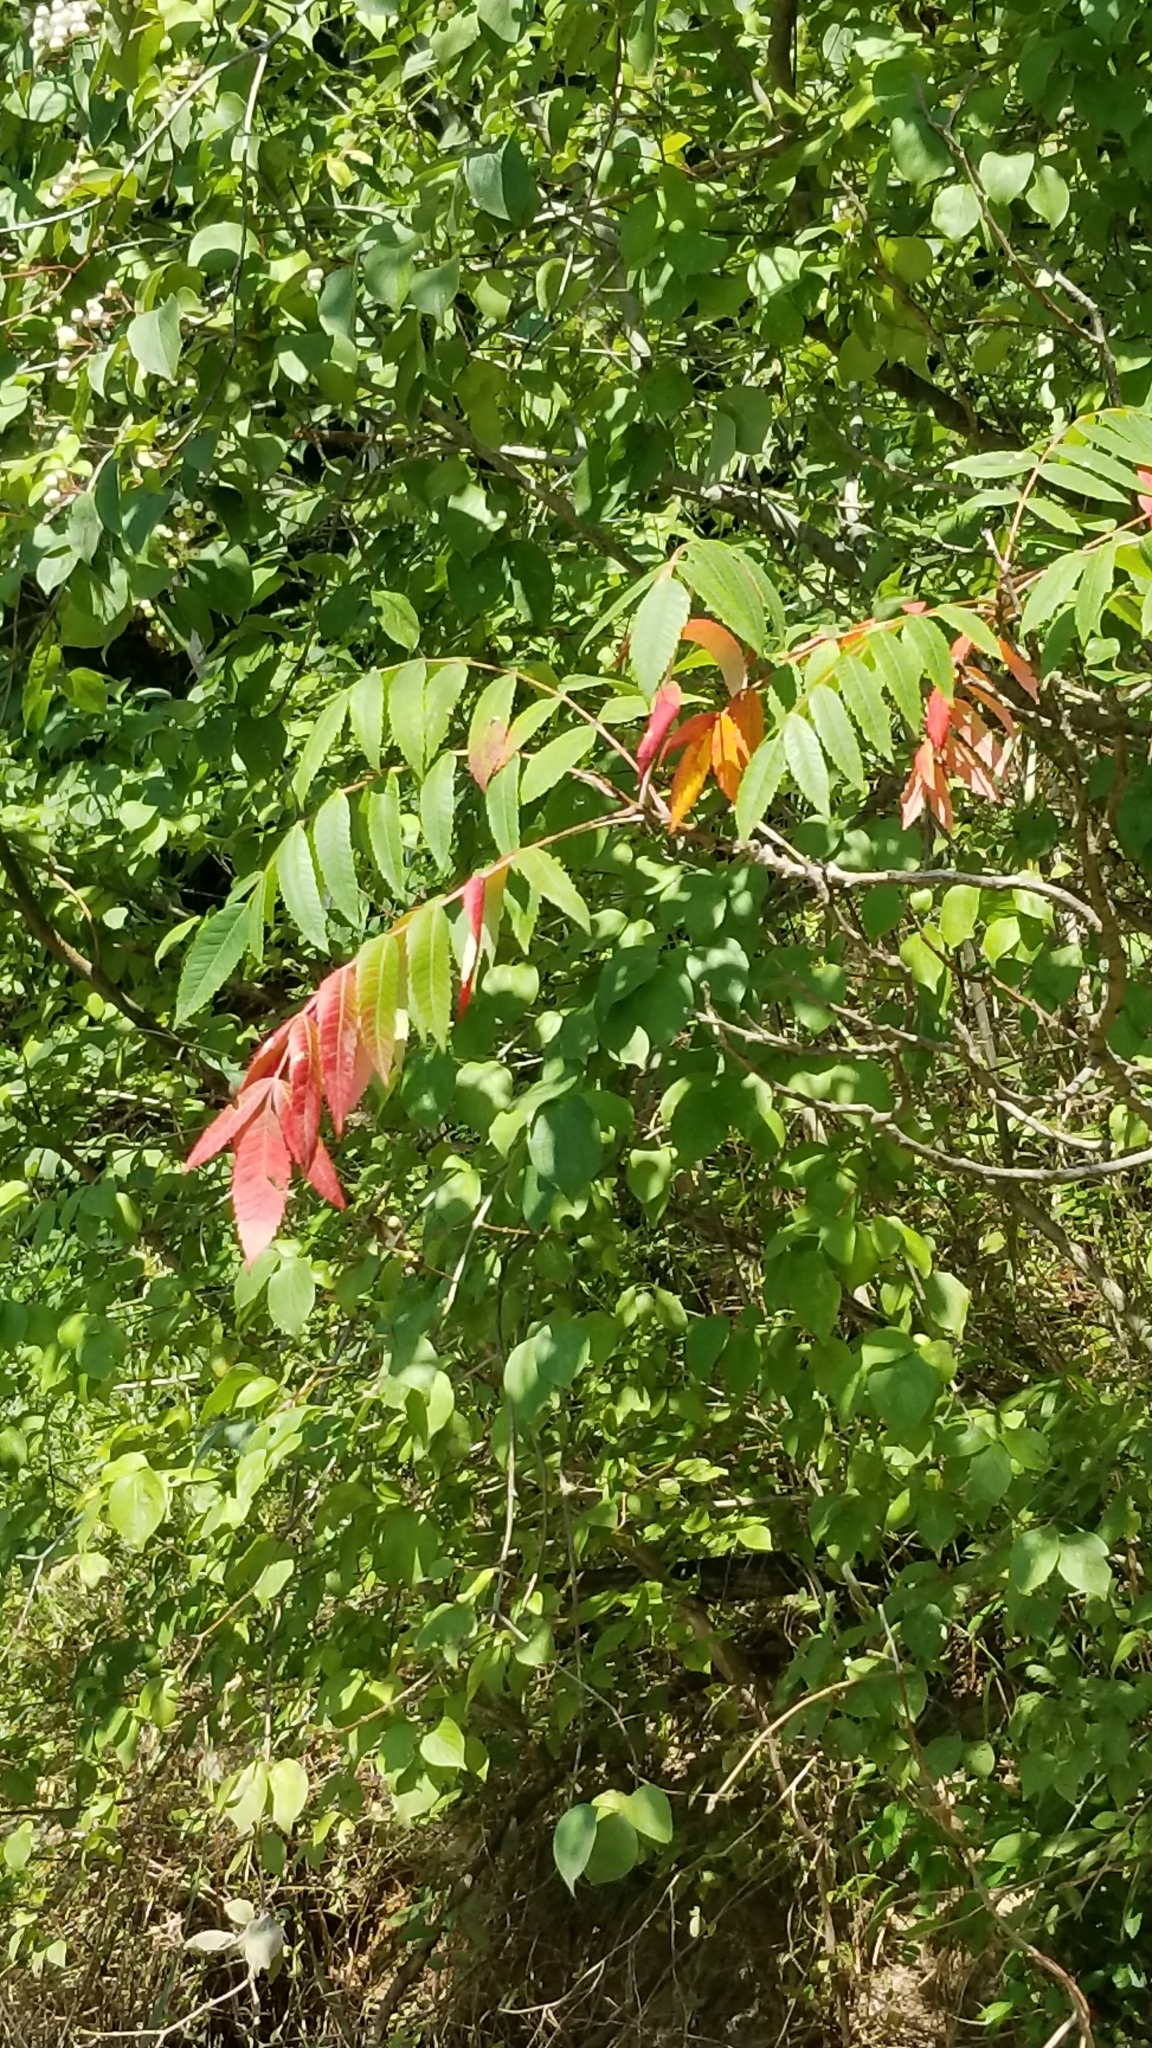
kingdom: Plantae
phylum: Tracheophyta
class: Magnoliopsida
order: Sapindales
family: Anacardiaceae
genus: Rhus
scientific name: Rhus glabra
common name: Scarlet sumac
